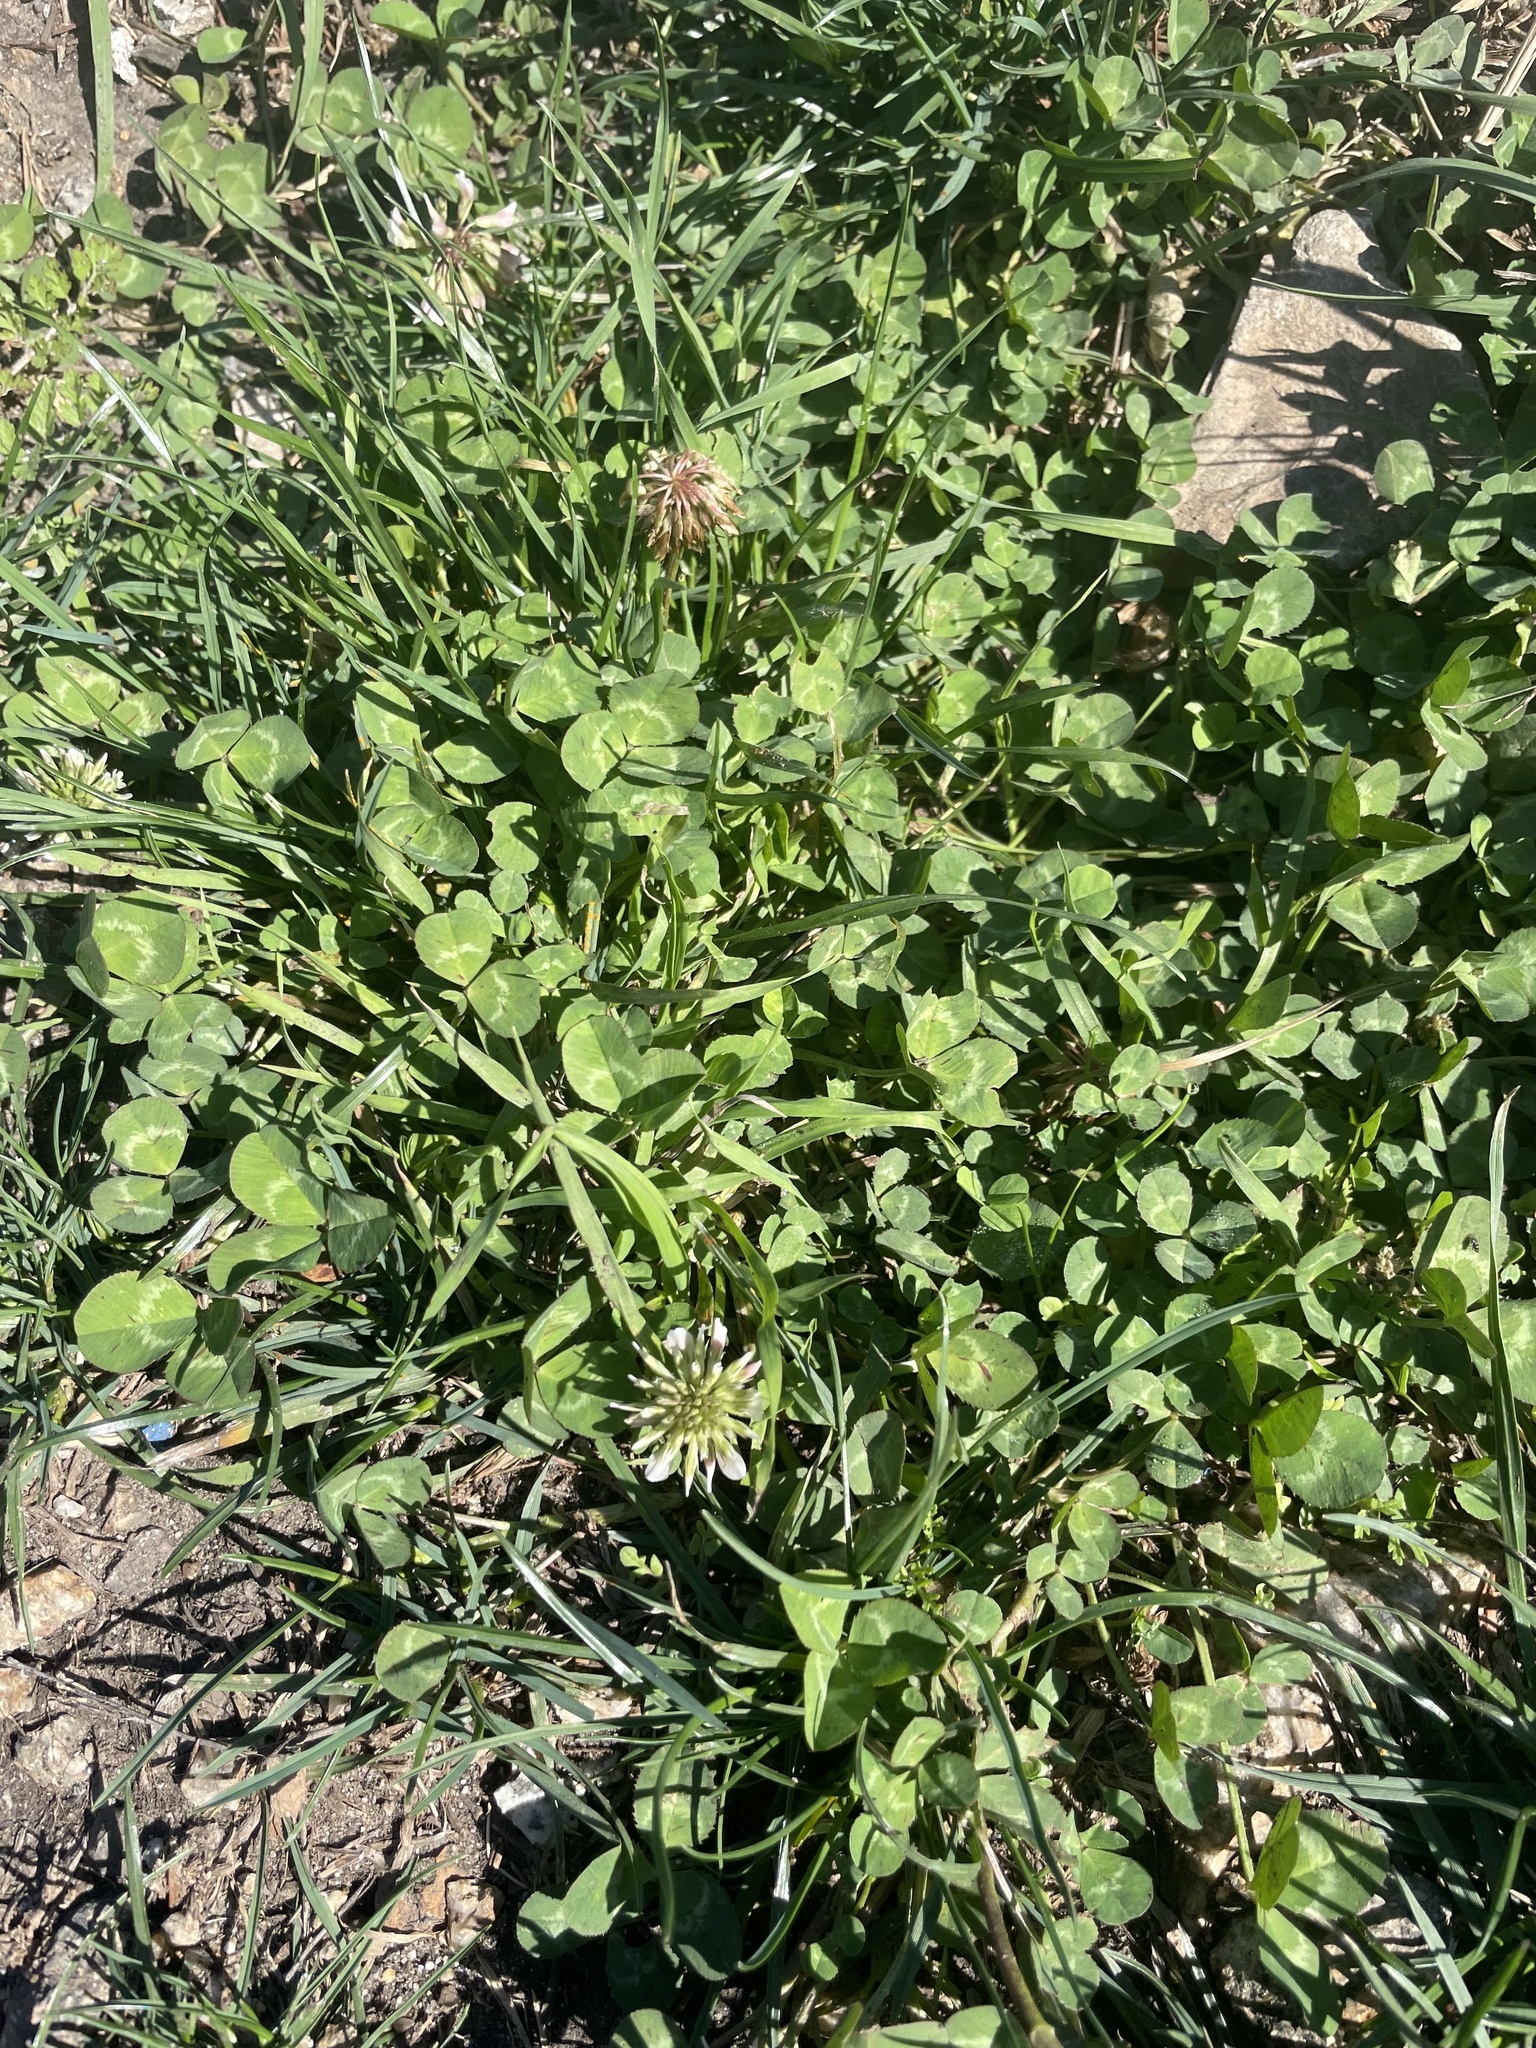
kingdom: Plantae
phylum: Tracheophyta
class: Magnoliopsida
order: Fabales
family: Fabaceae
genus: Trifolium
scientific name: Trifolium repens
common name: White clover
